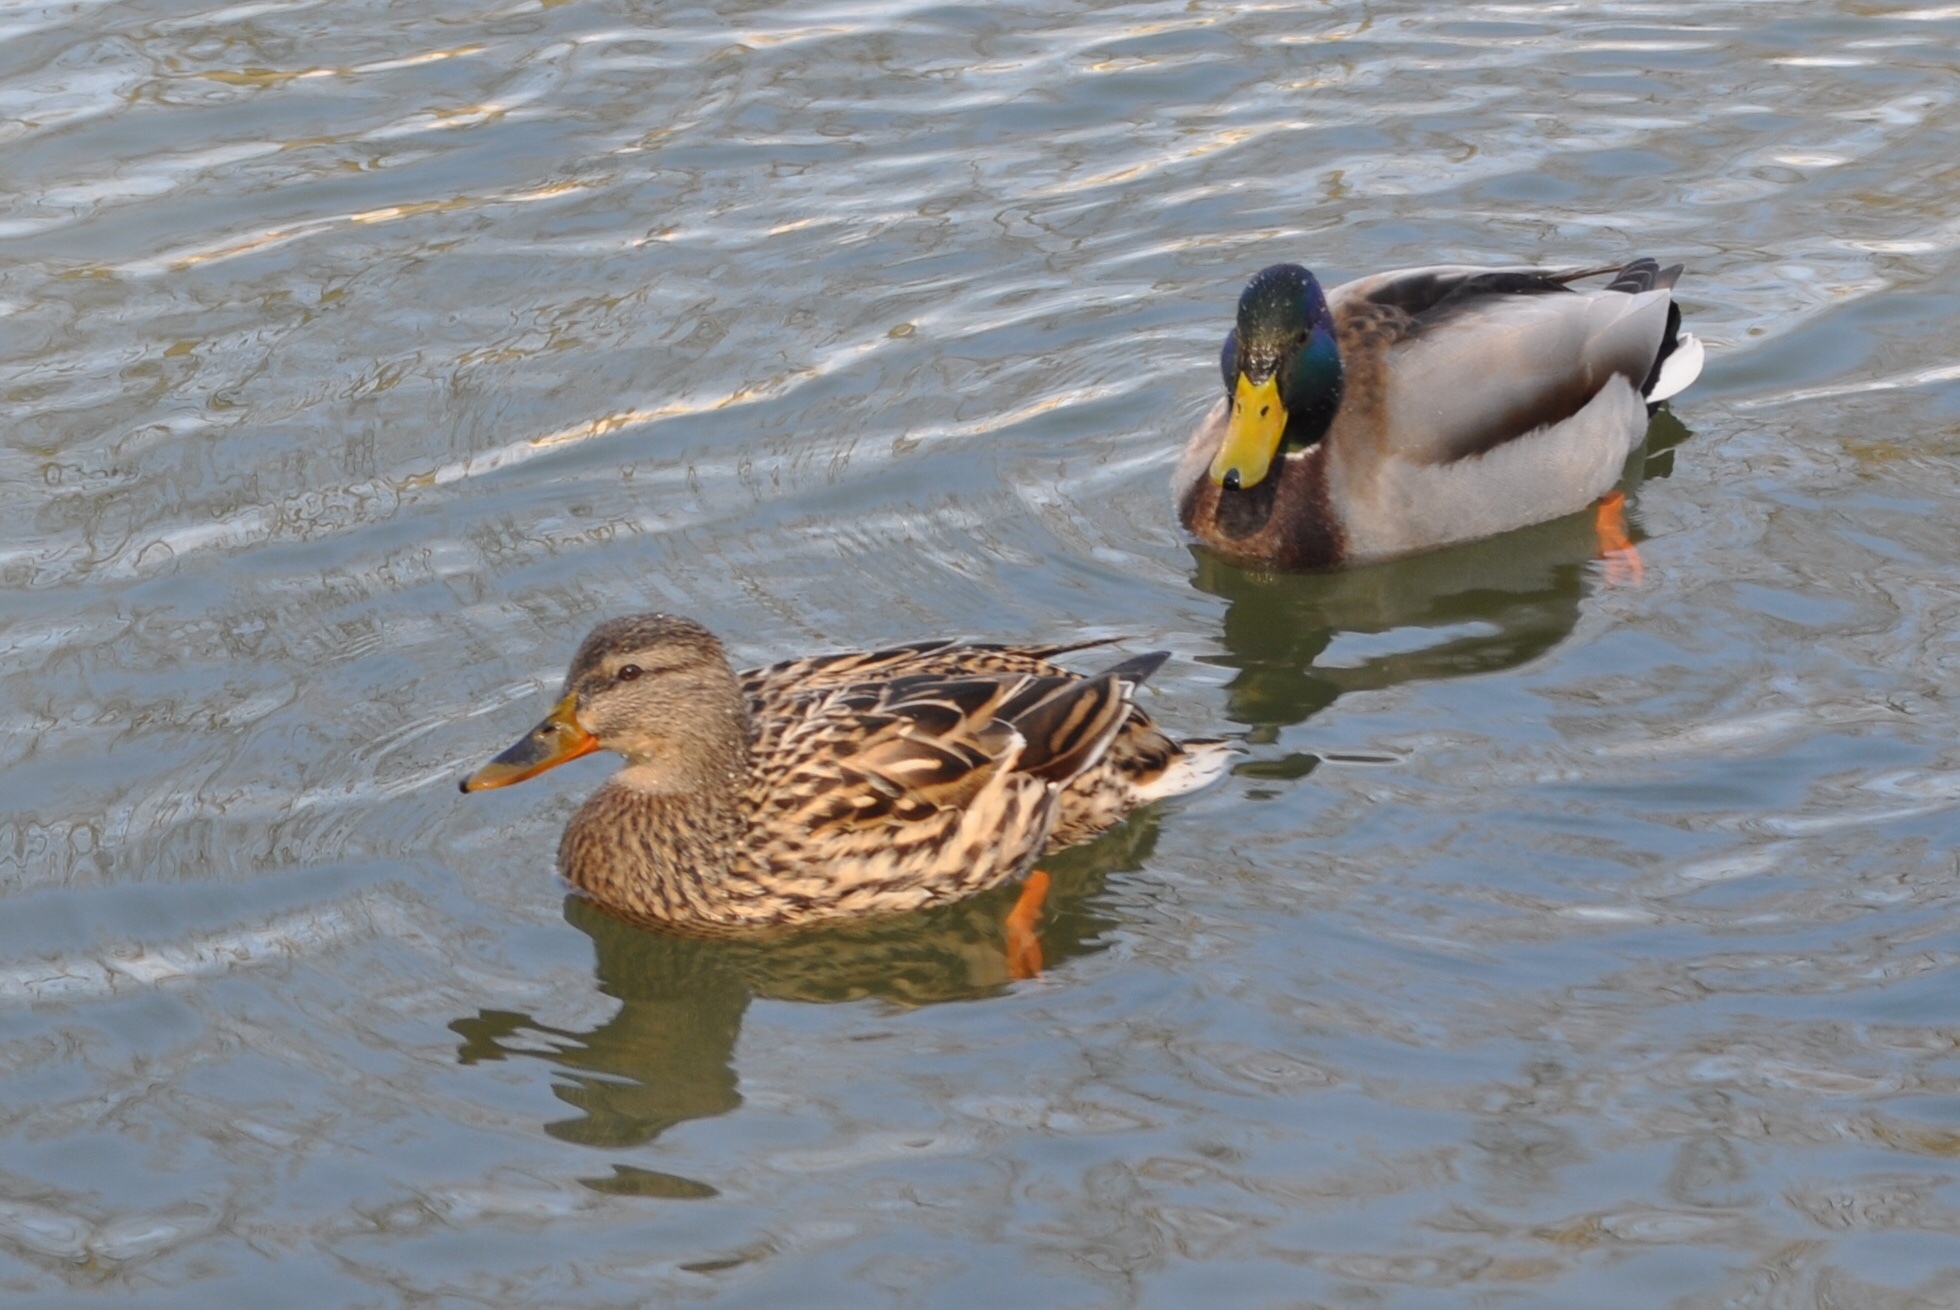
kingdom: Animalia
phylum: Chordata
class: Aves
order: Anseriformes
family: Anatidae
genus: Anas
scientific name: Anas platyrhynchos
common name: Mallard
